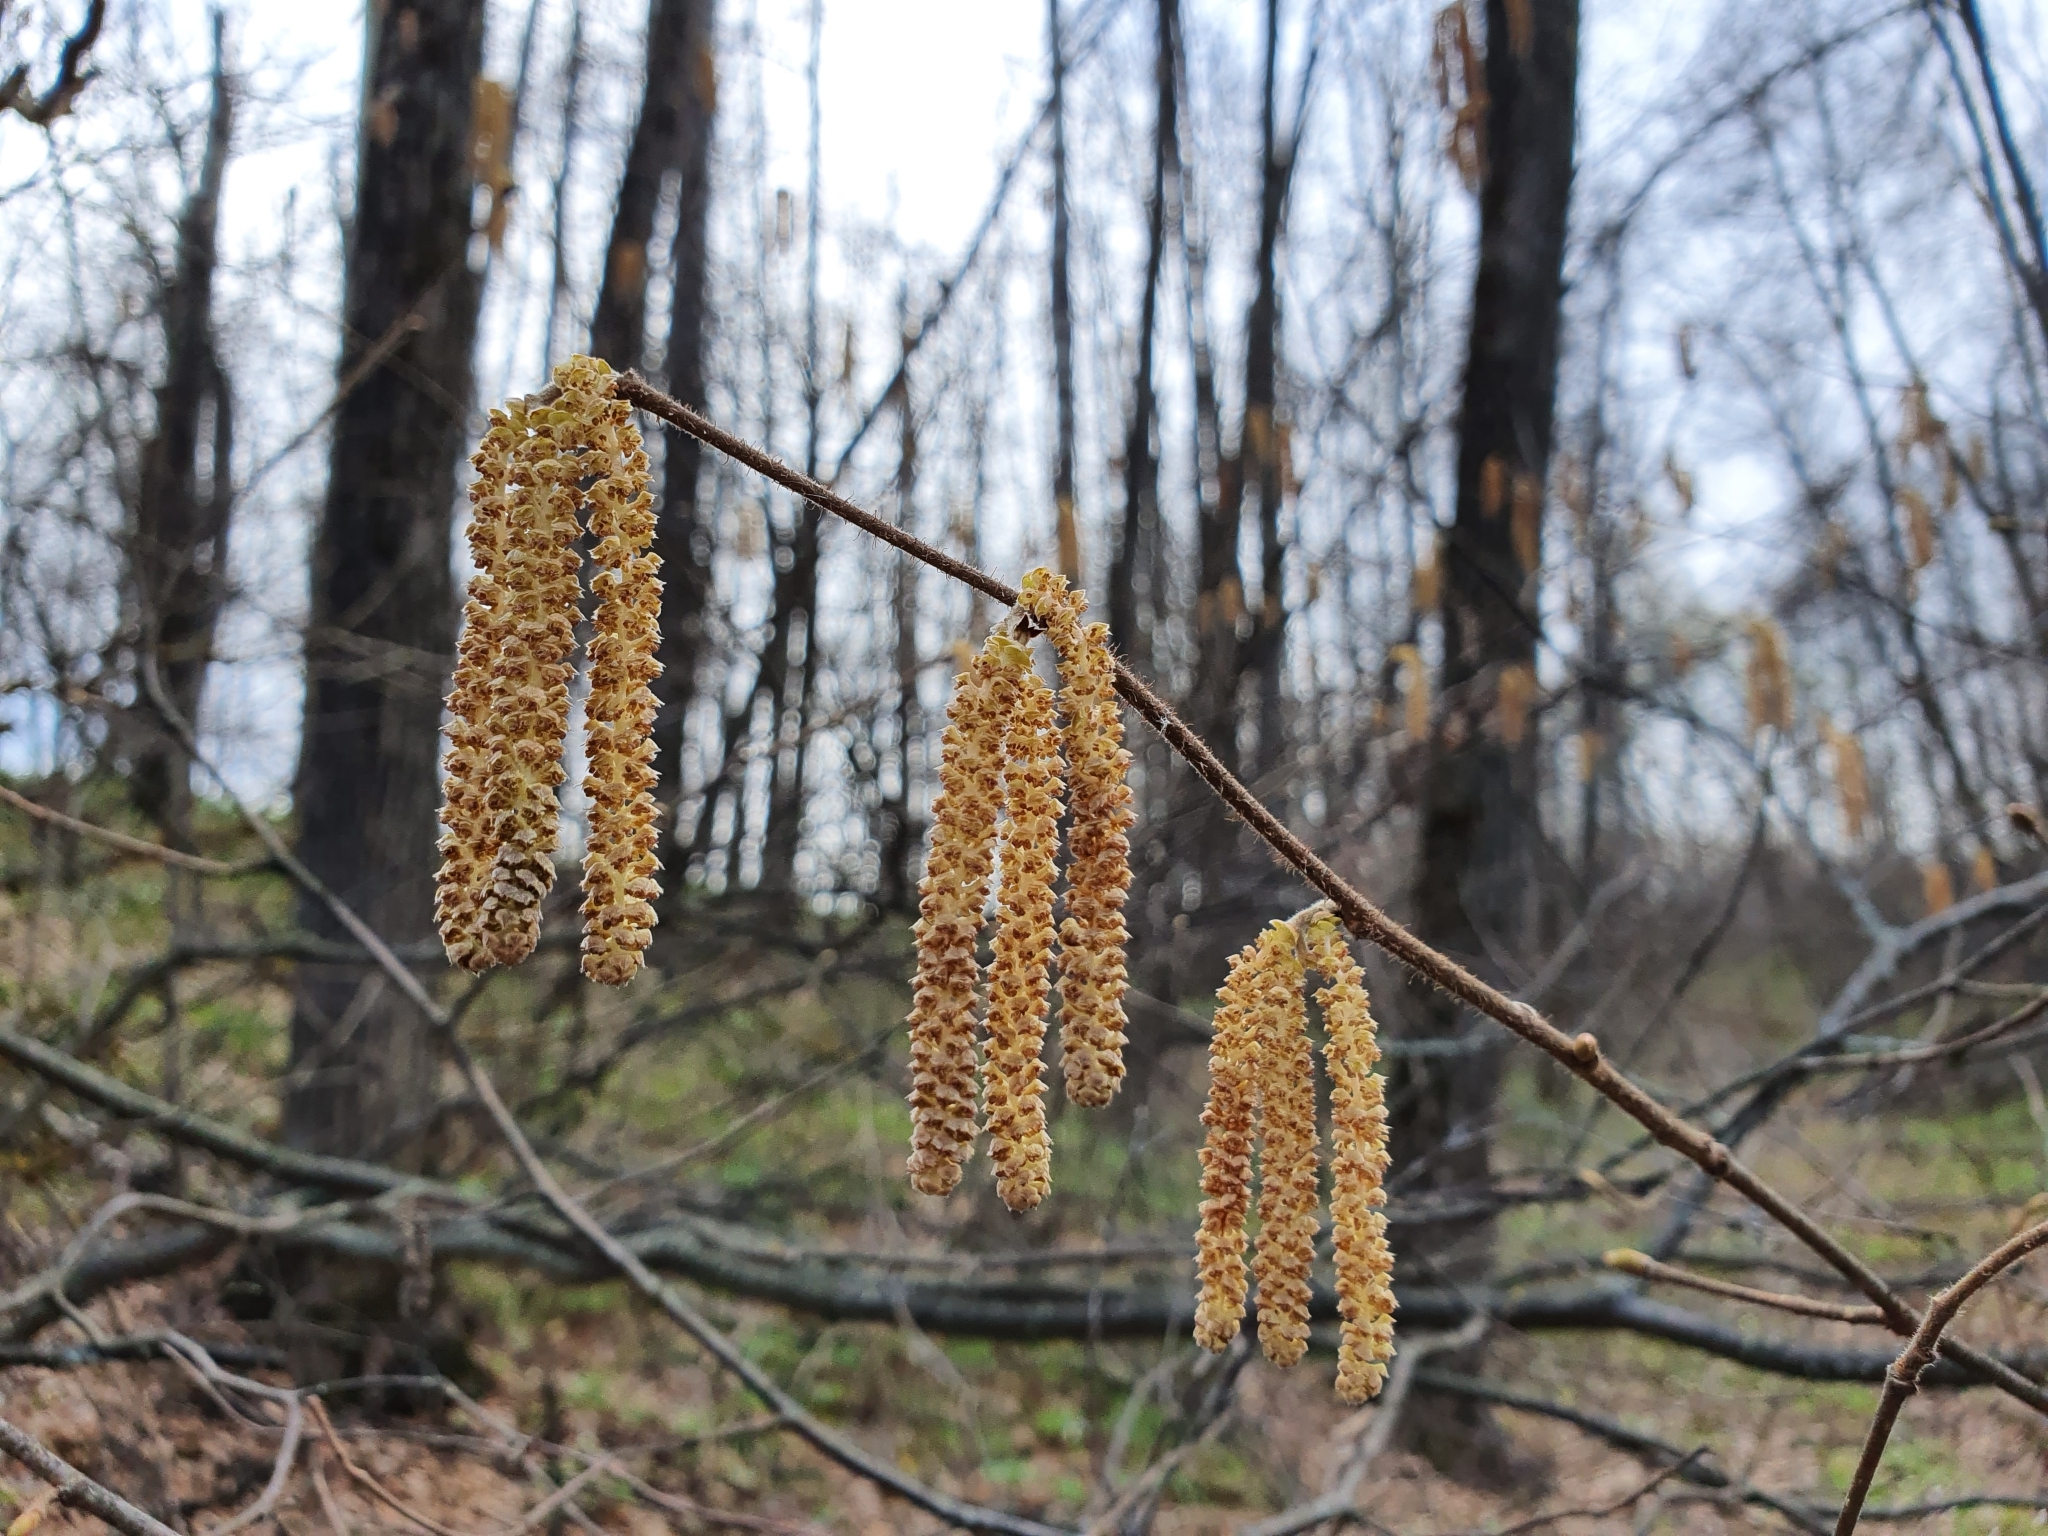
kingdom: Plantae
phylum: Tracheophyta
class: Magnoliopsida
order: Fagales
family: Betulaceae
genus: Corylus
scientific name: Corylus avellana
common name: European hazel
